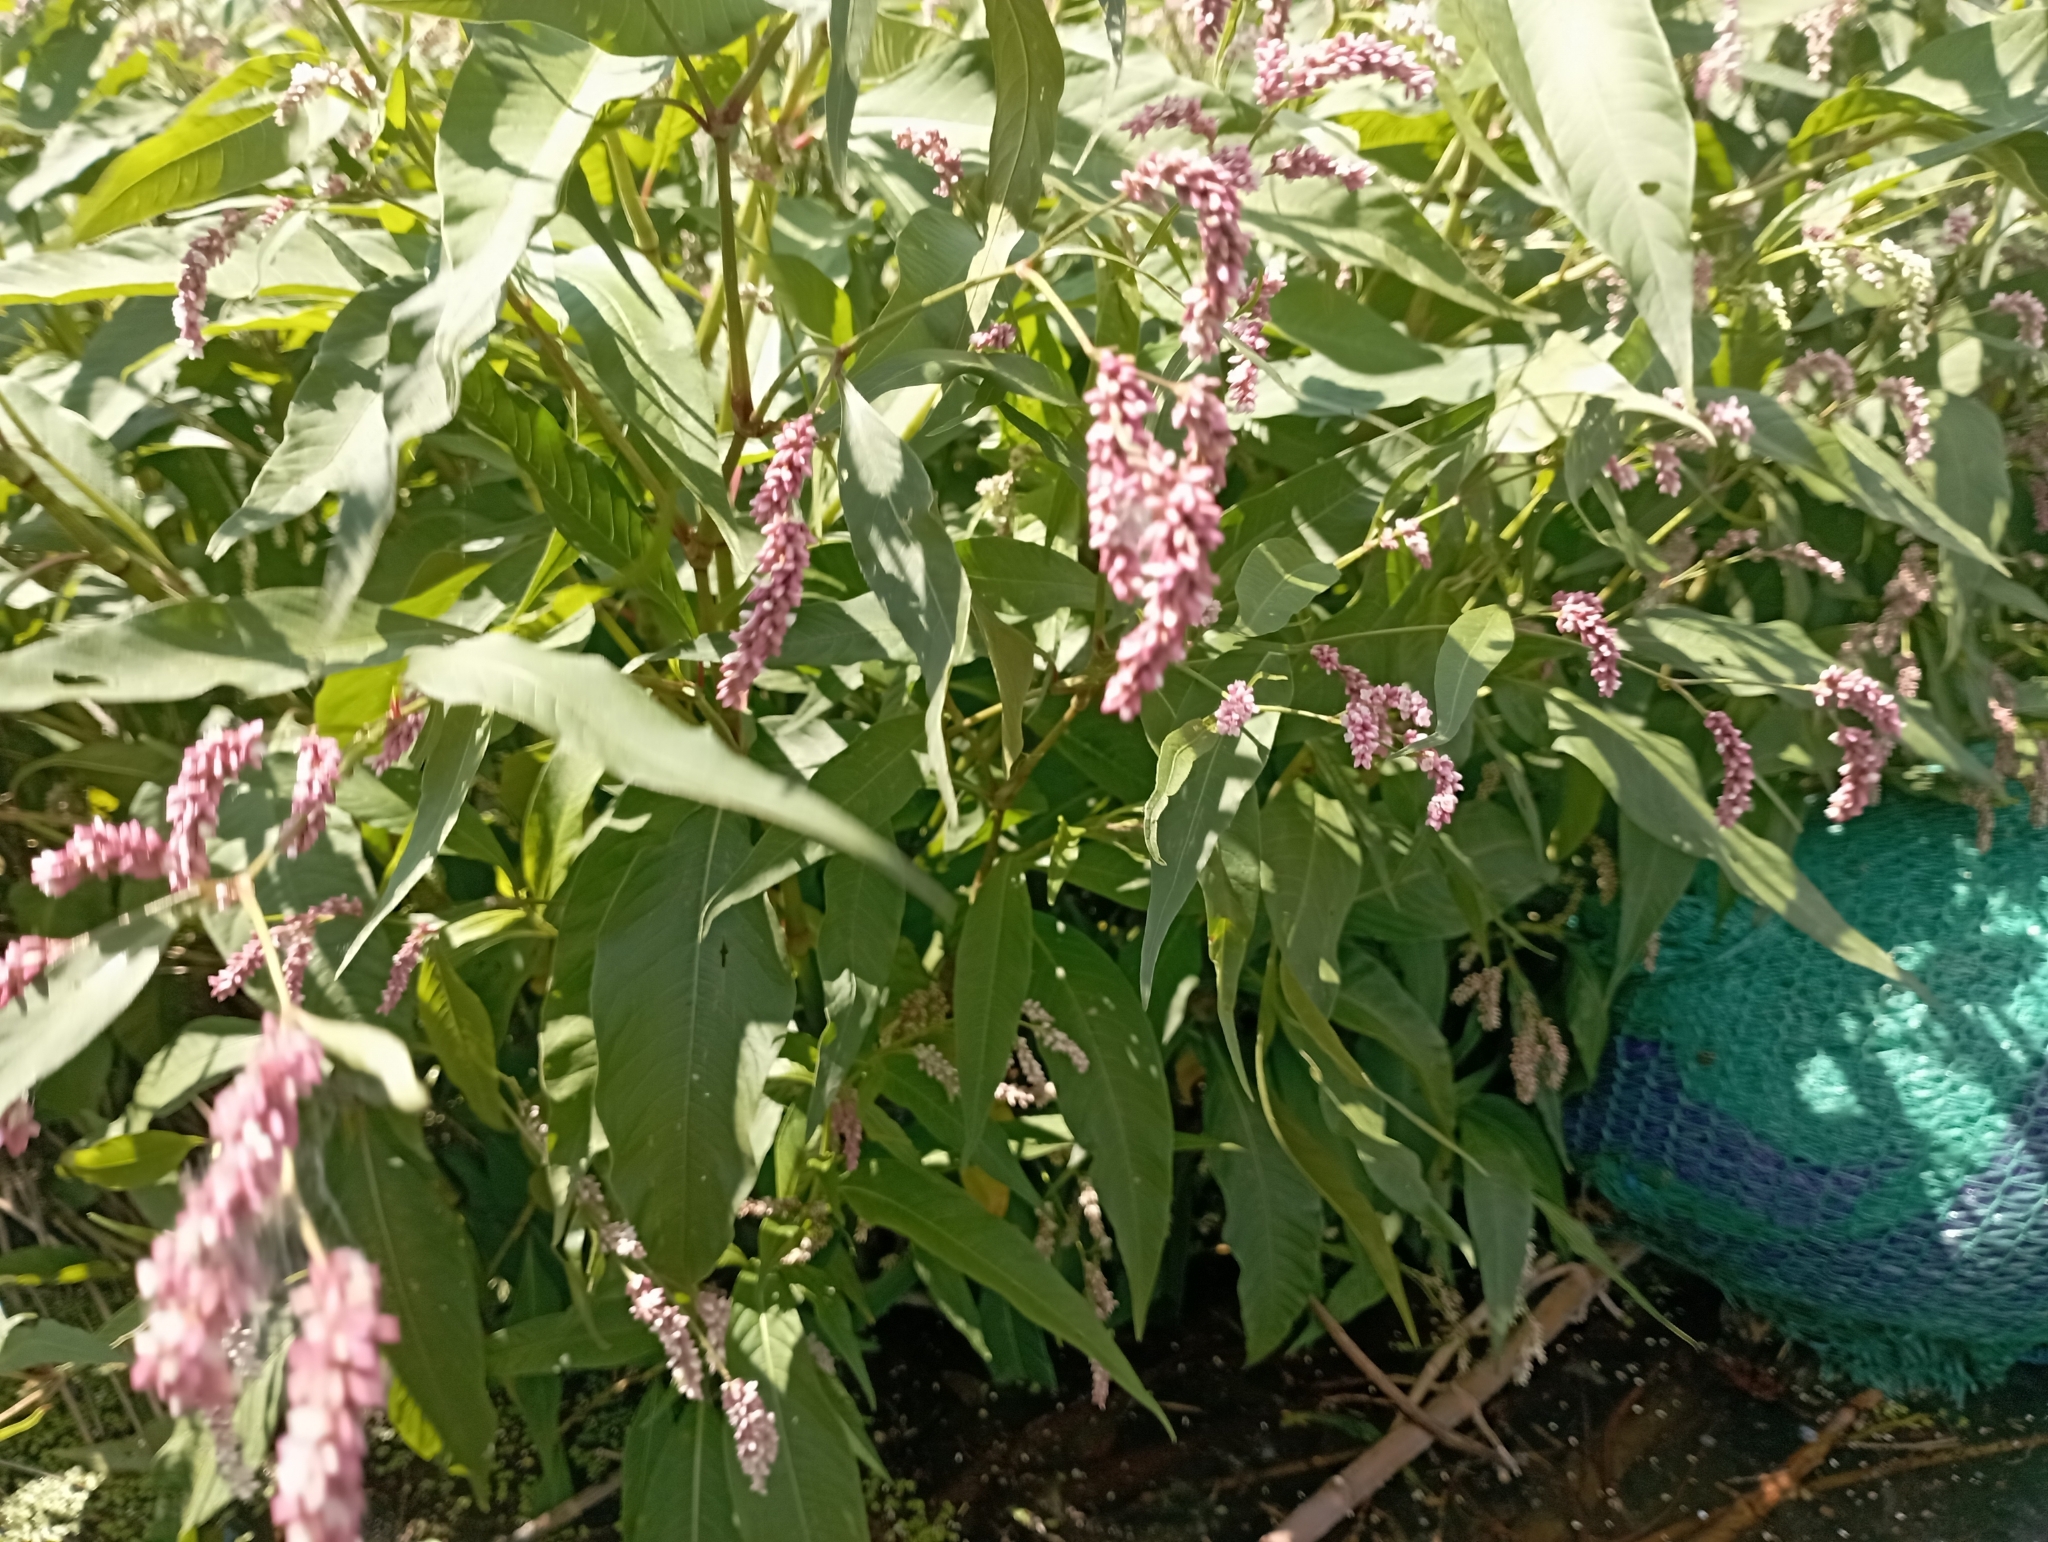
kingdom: Plantae
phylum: Tracheophyta
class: Magnoliopsida
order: Caryophyllales
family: Polygonaceae
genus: Persicaria
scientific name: Persicaria lapathifolia
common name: Curlytop knotweed
